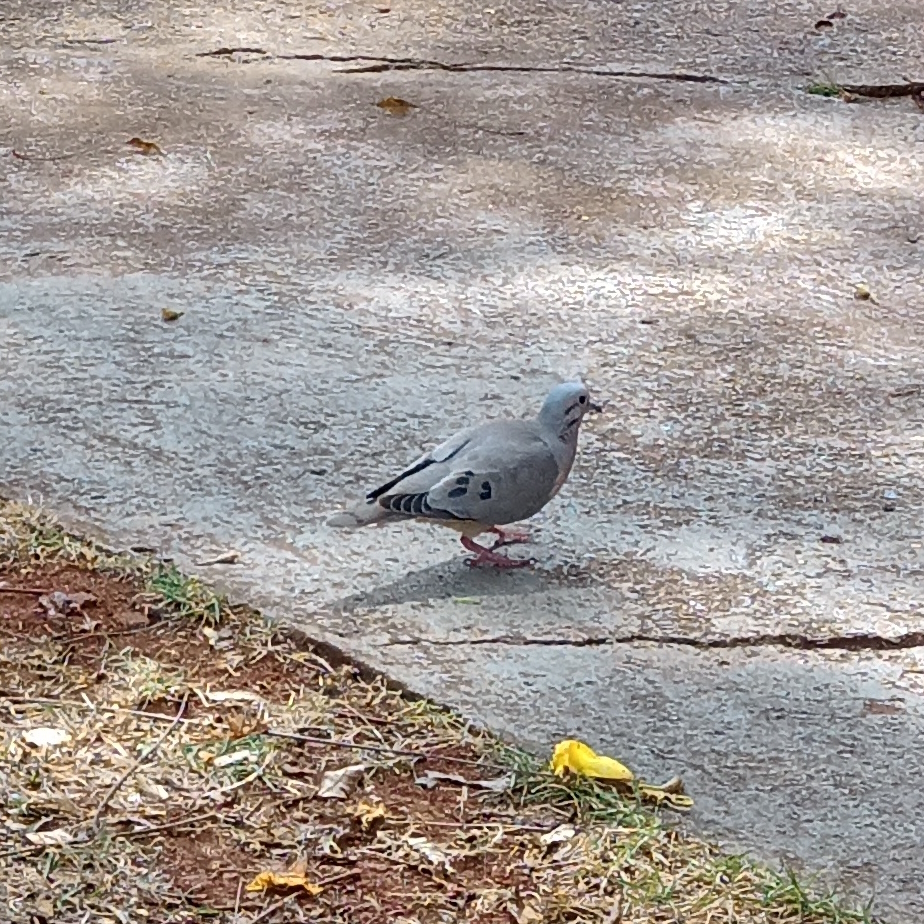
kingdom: Animalia
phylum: Chordata
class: Aves
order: Columbiformes
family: Columbidae
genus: Zenaida
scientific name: Zenaida auriculata
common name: Eared dove
